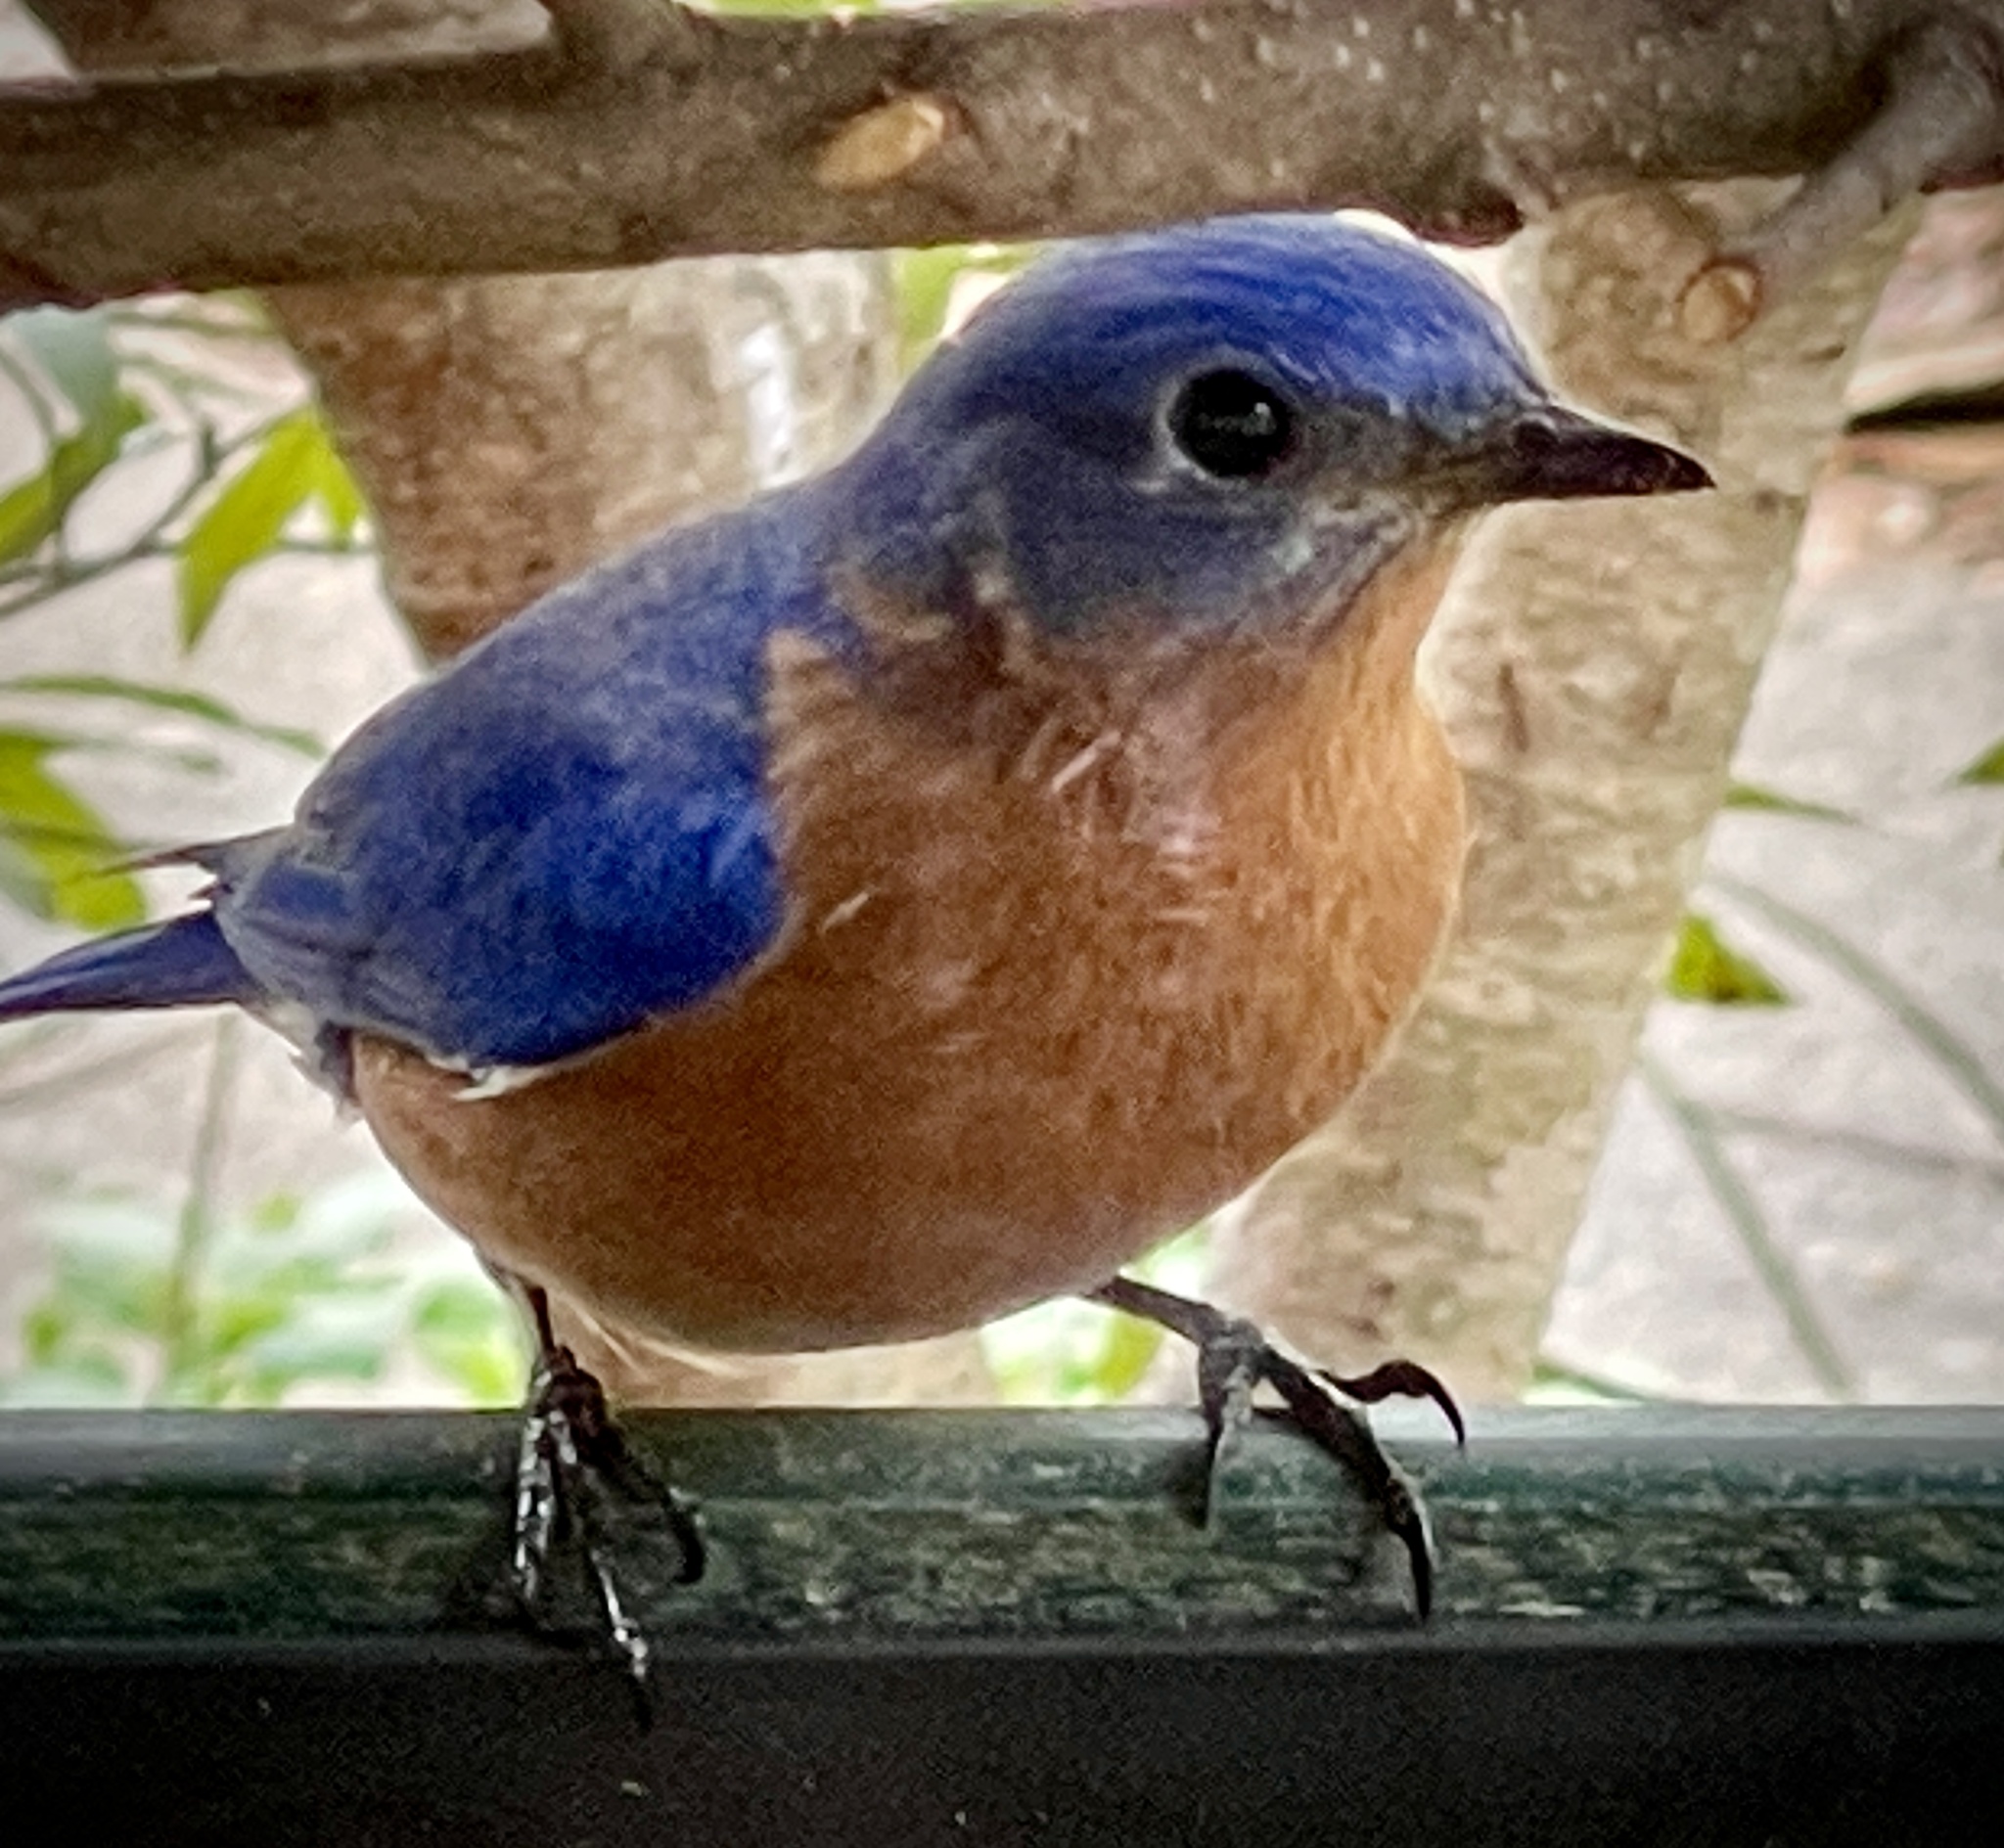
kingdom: Animalia
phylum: Chordata
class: Aves
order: Passeriformes
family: Turdidae
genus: Sialia
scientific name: Sialia sialis
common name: Eastern bluebird
